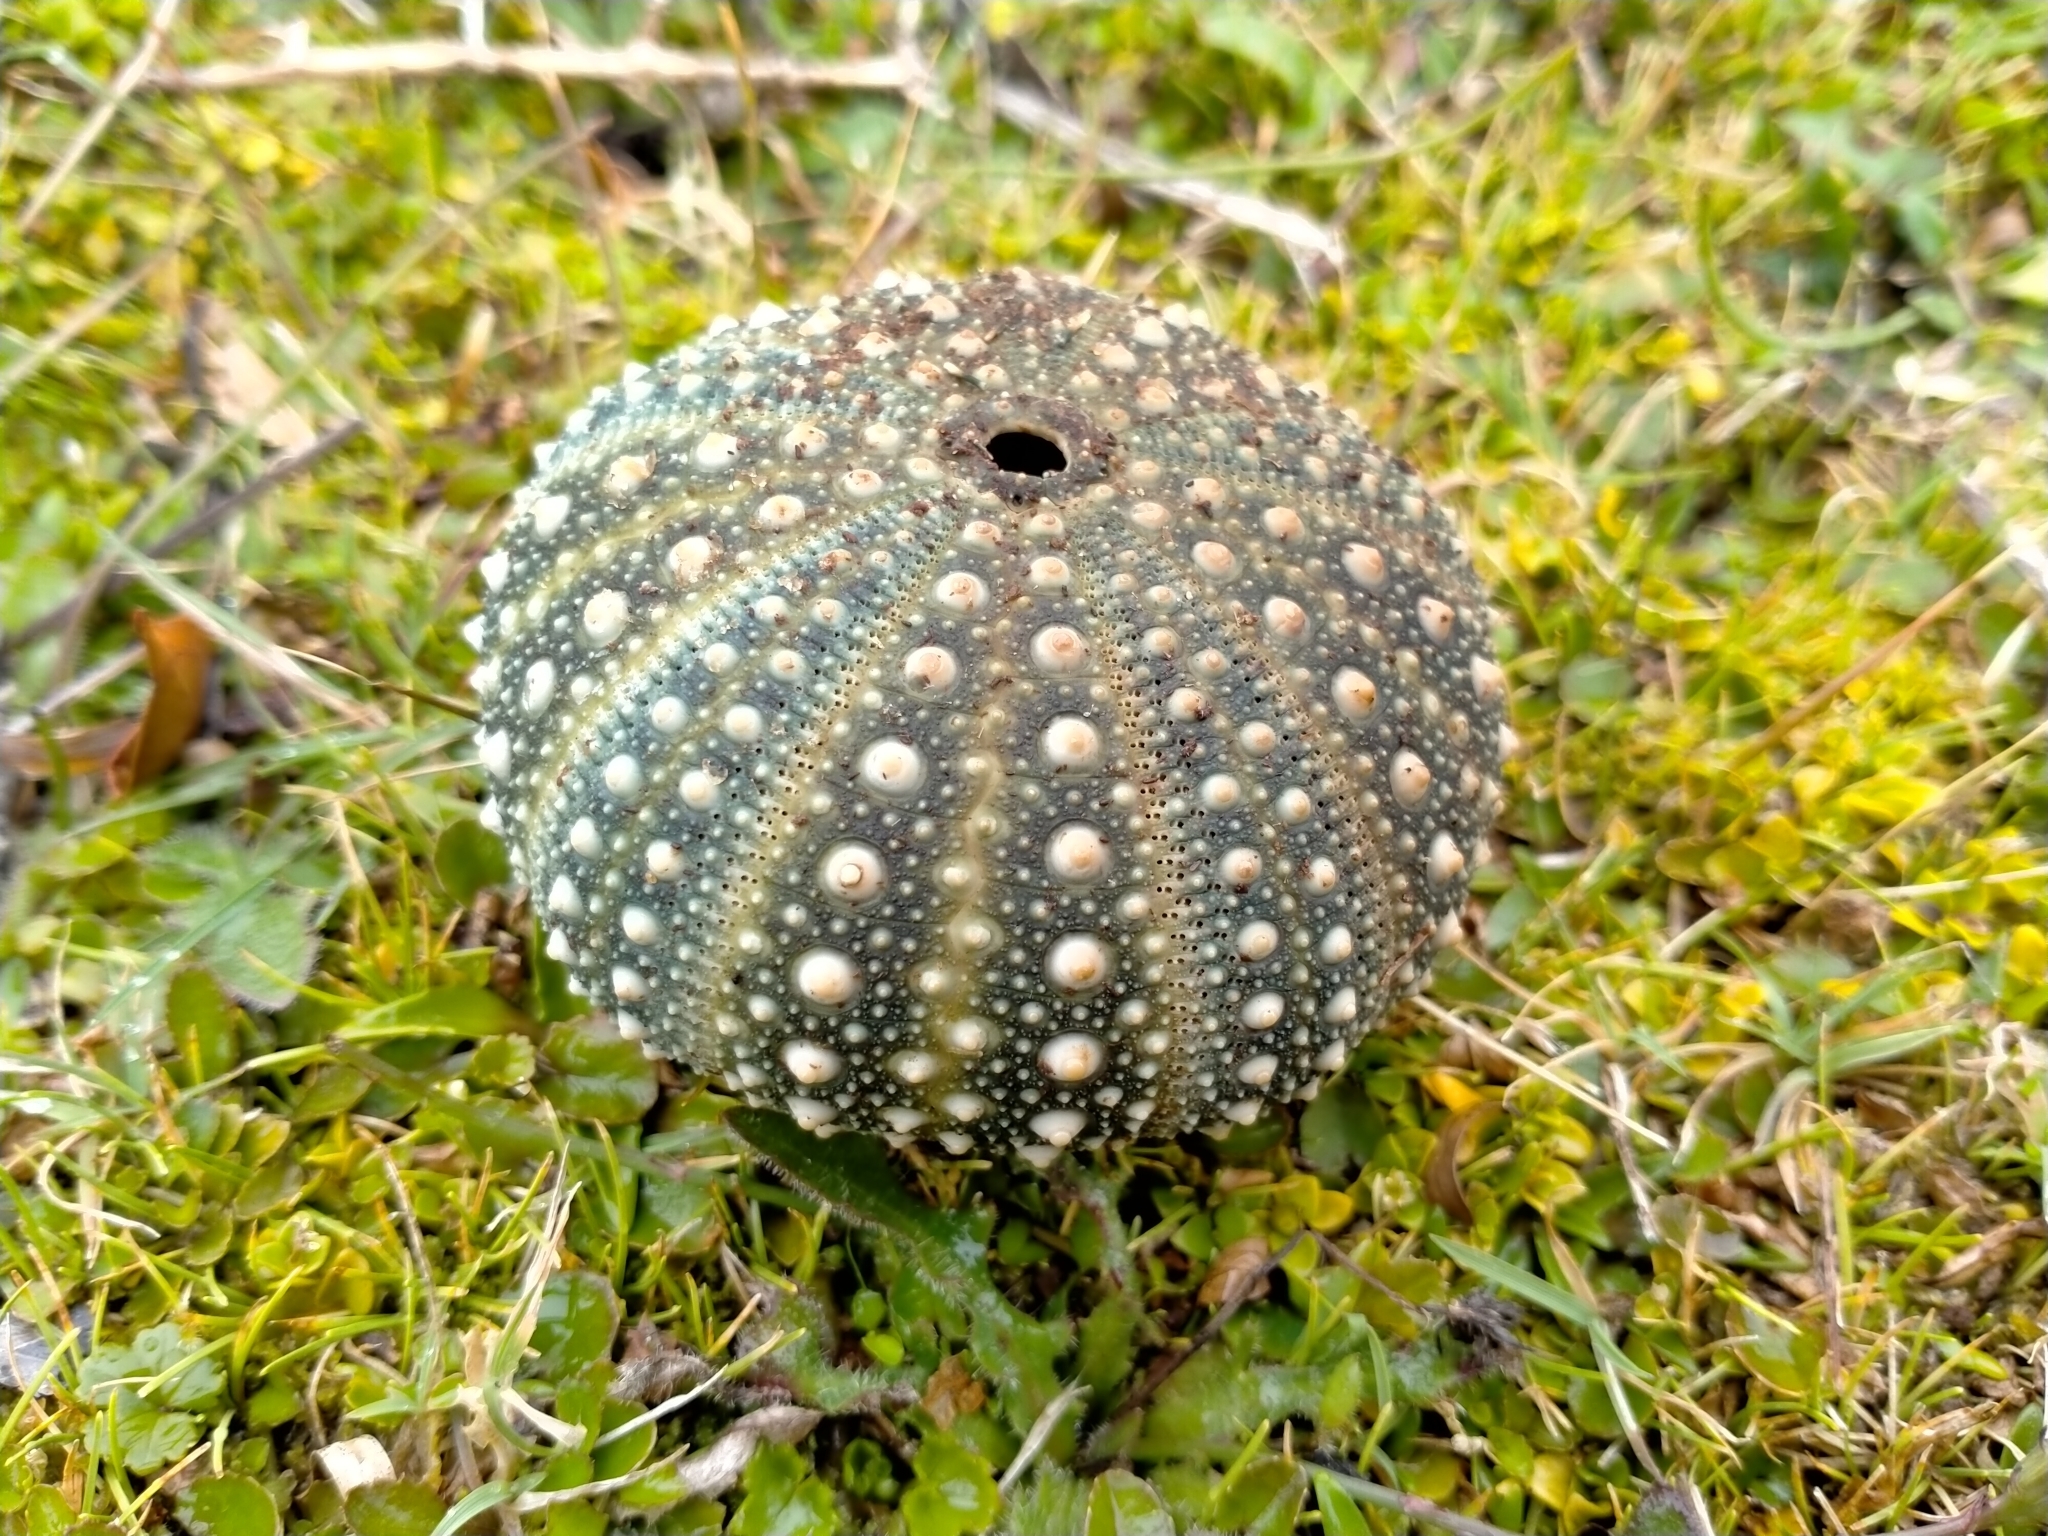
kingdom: Animalia
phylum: Echinodermata
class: Echinoidea
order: Camarodonta
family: Echinometridae
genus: Evechinus
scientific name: Evechinus chloroticus
